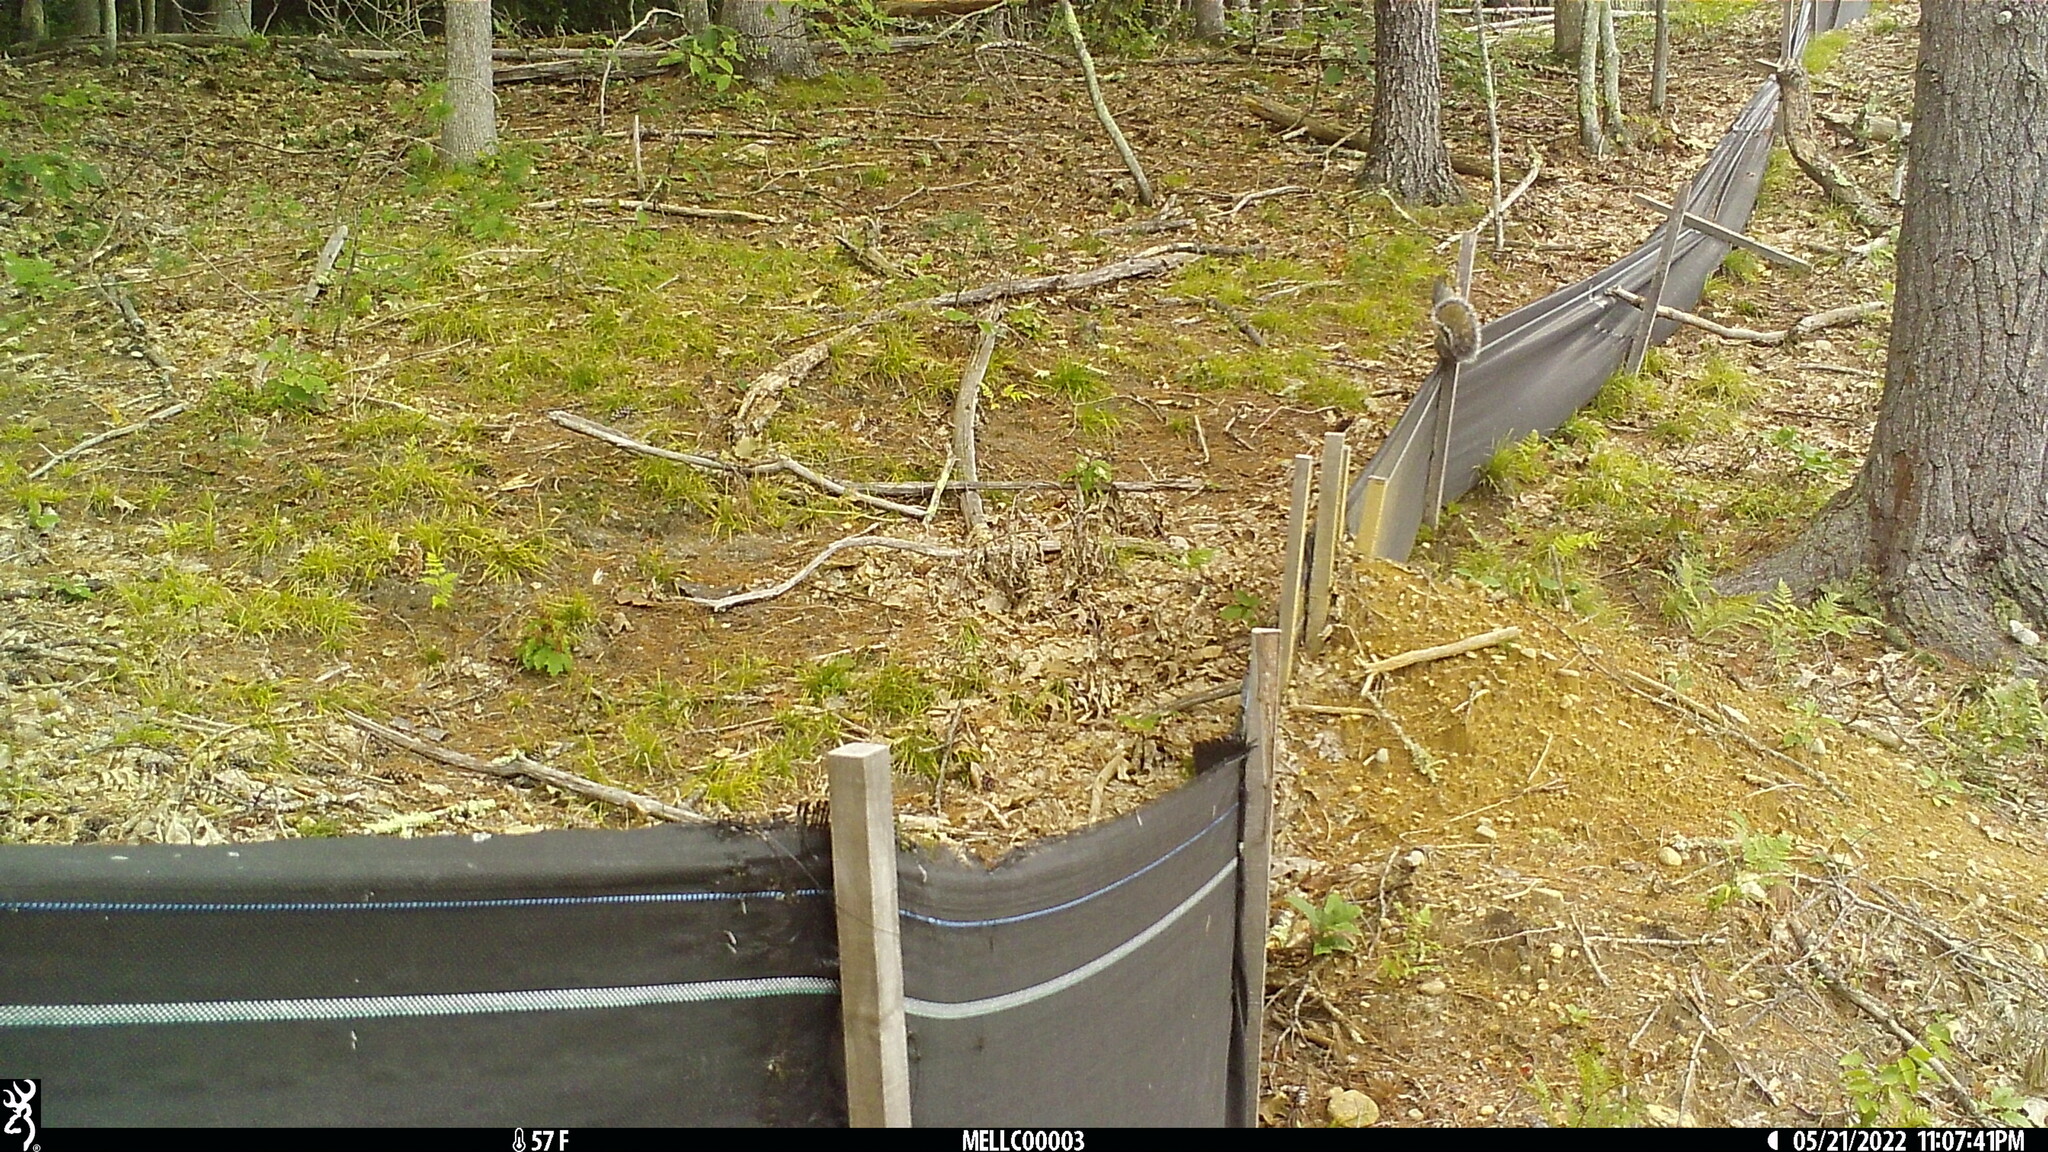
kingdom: Animalia
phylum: Chordata
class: Mammalia
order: Rodentia
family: Sciuridae
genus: Sciurus
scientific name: Sciurus carolinensis
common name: Eastern gray squirrel
